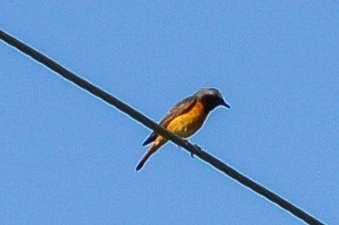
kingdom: Animalia
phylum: Chordata
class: Aves
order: Passeriformes
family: Muscicapidae
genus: Phoenicurus
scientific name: Phoenicurus phoenicurus
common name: Common redstart
